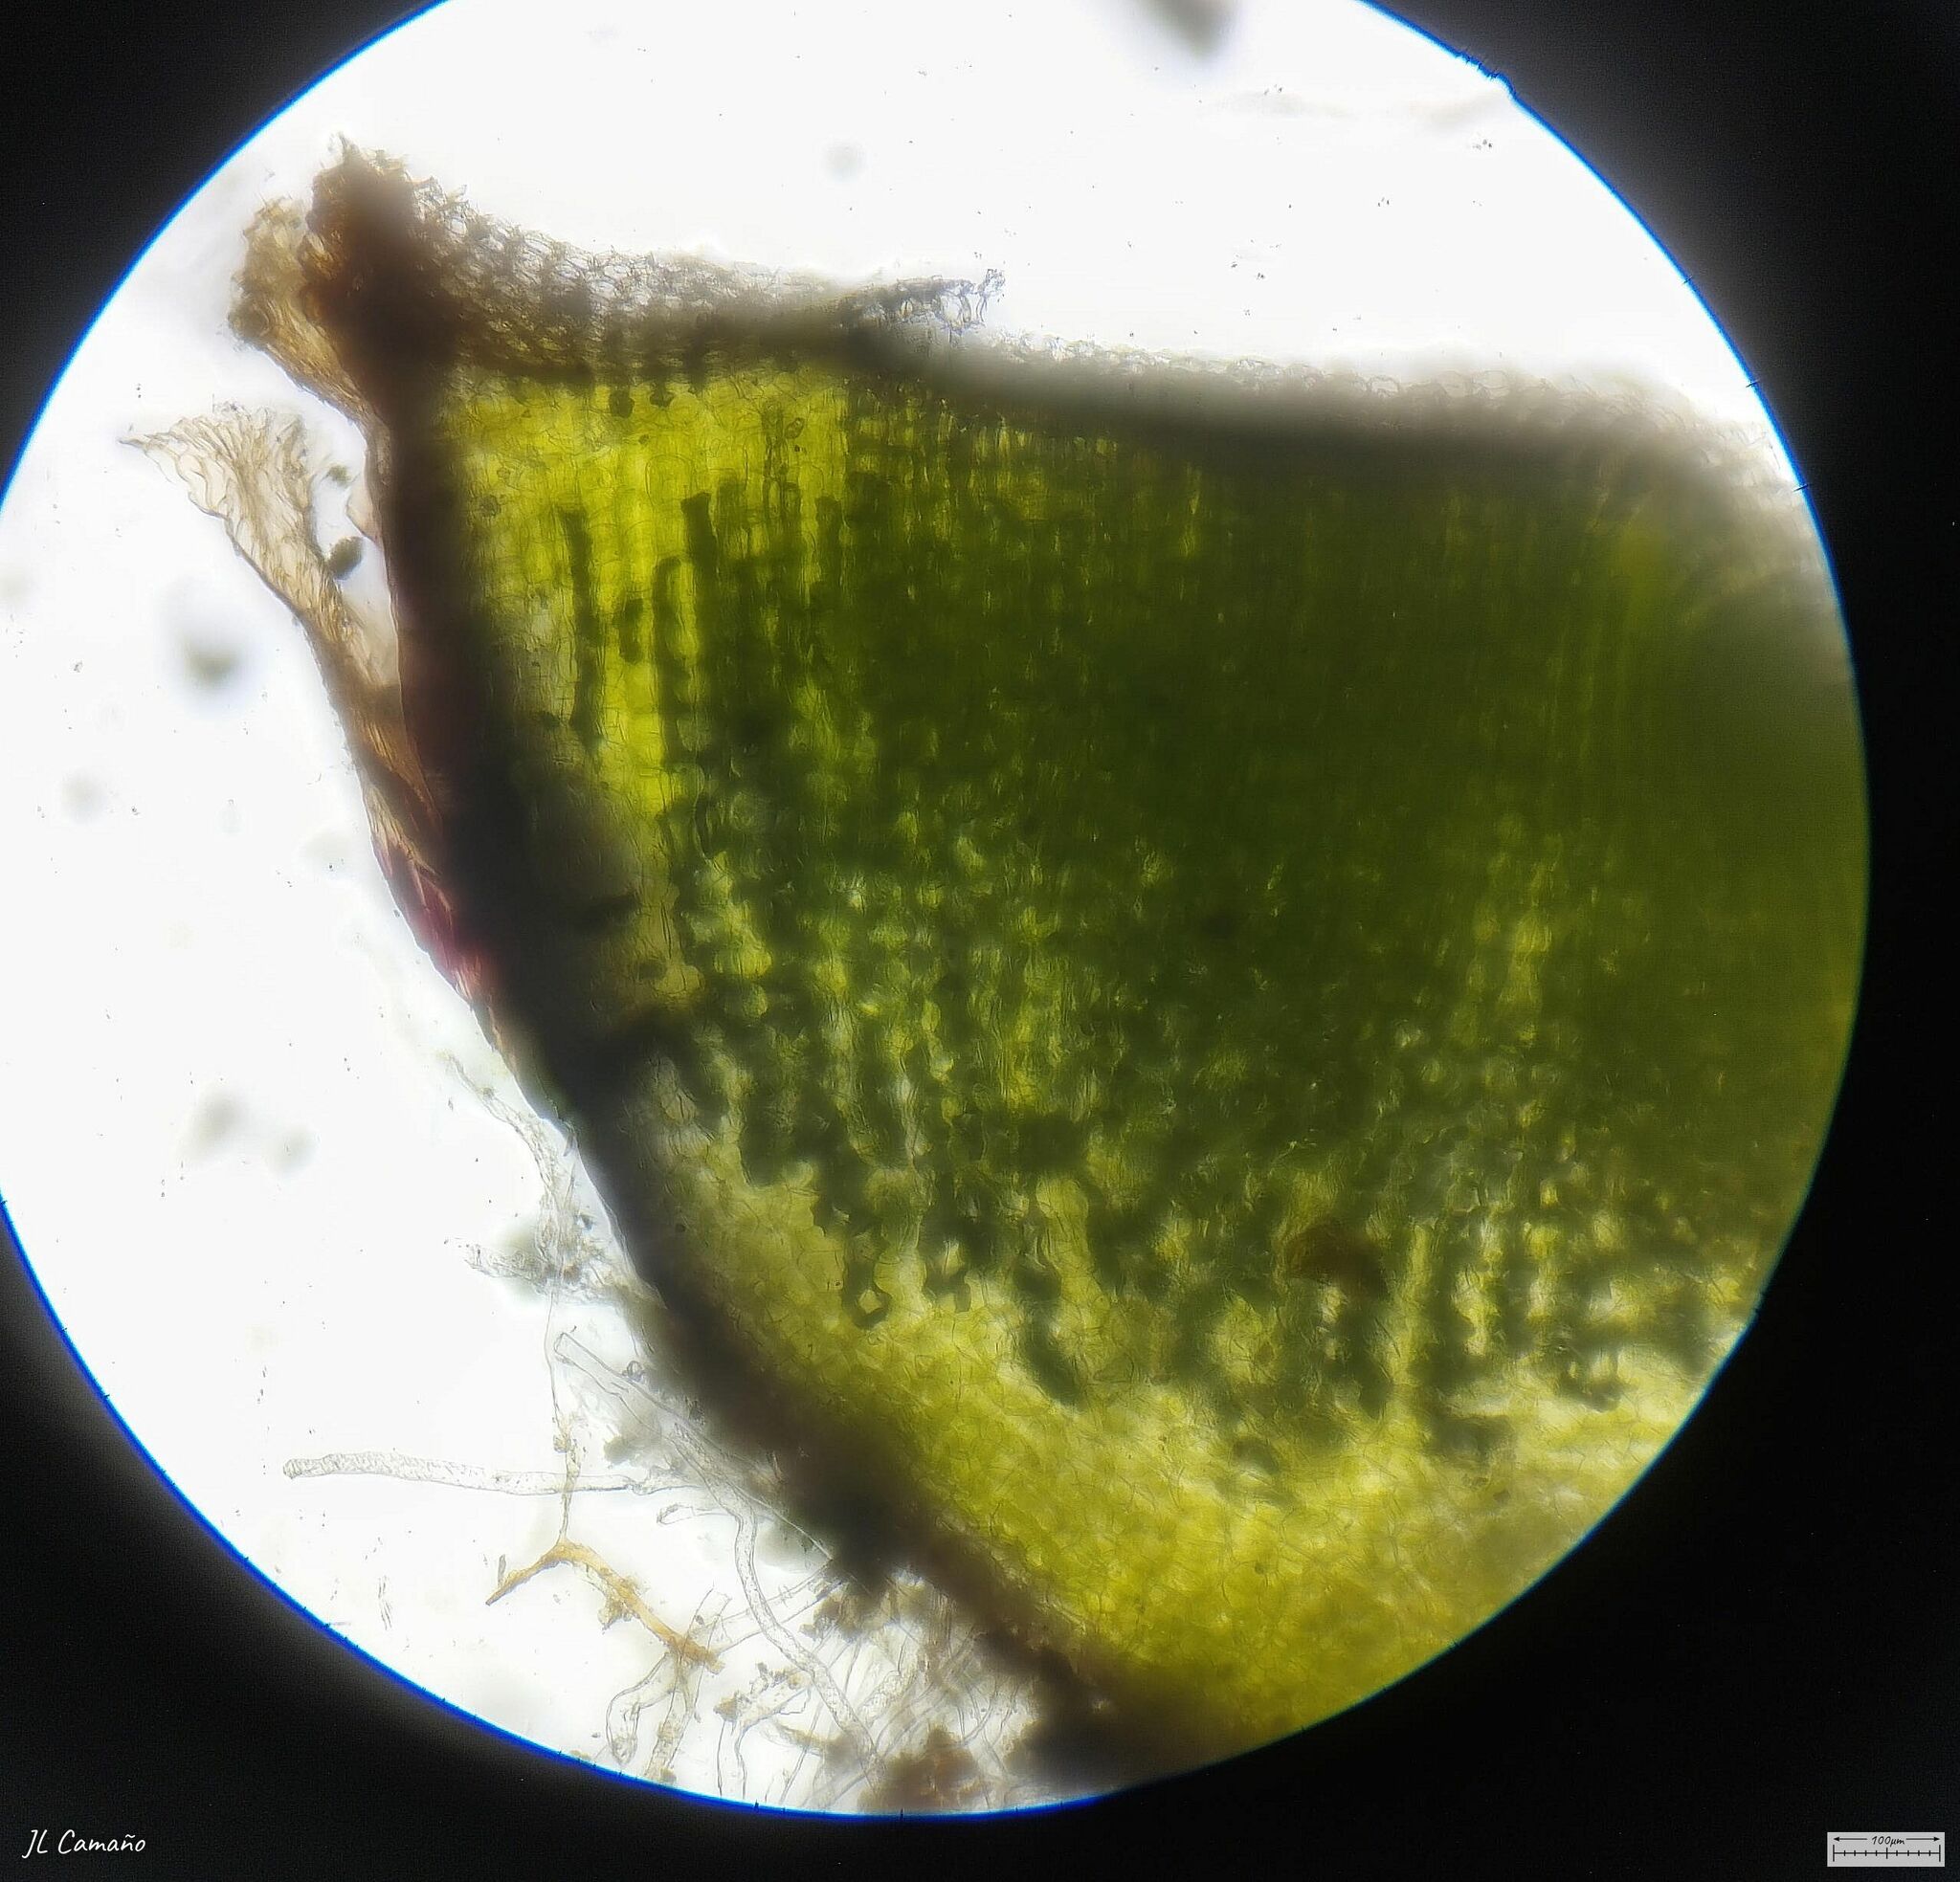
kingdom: Plantae
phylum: Marchantiophyta
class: Marchantiopsida
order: Marchantiales
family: Ricciaceae
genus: Riccia
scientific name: Riccia sommieri
